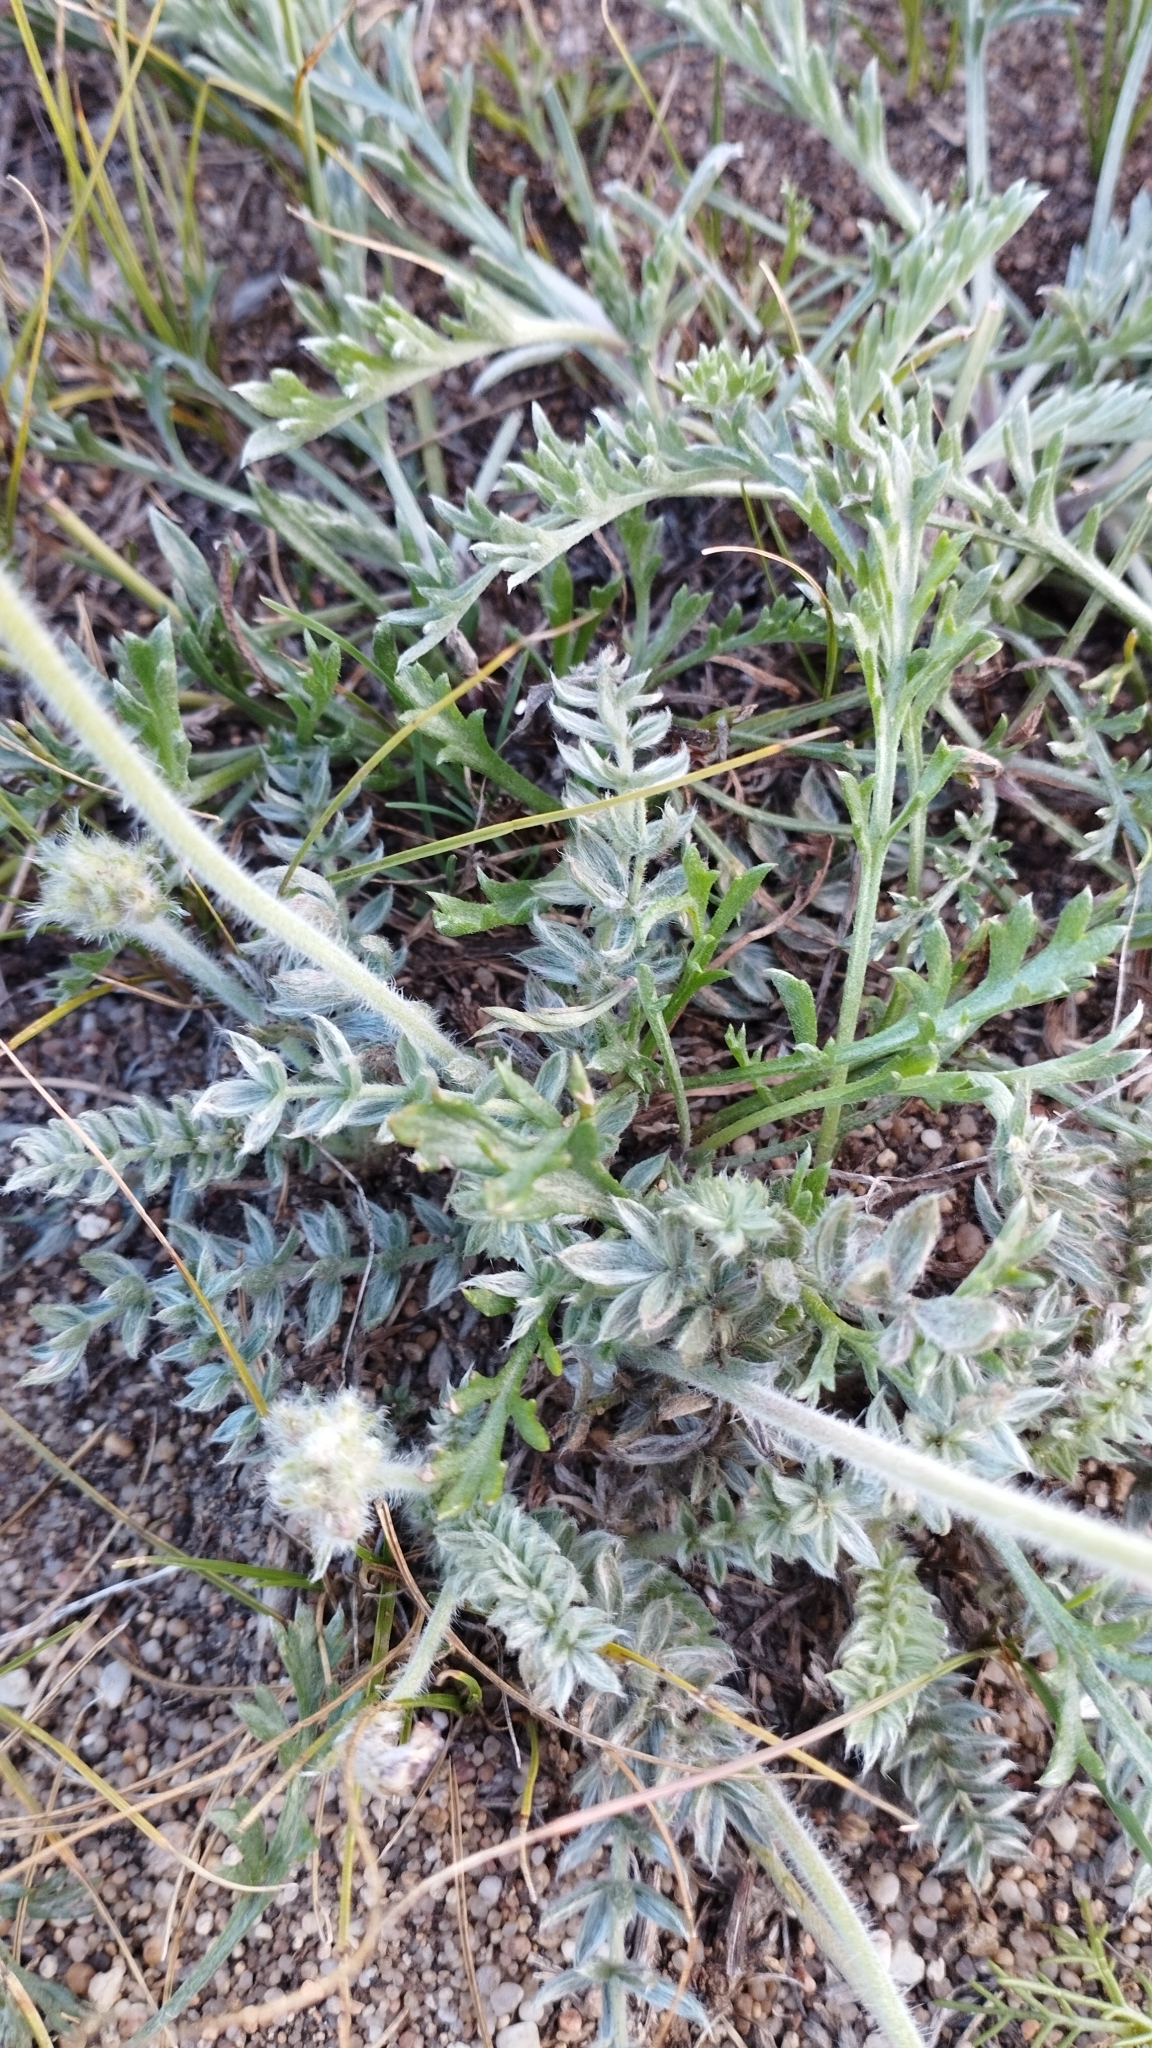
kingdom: Plantae
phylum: Tracheophyta
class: Magnoliopsida
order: Fabales
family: Fabaceae
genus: Oxytropis
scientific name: Oxytropis turczaninovii
